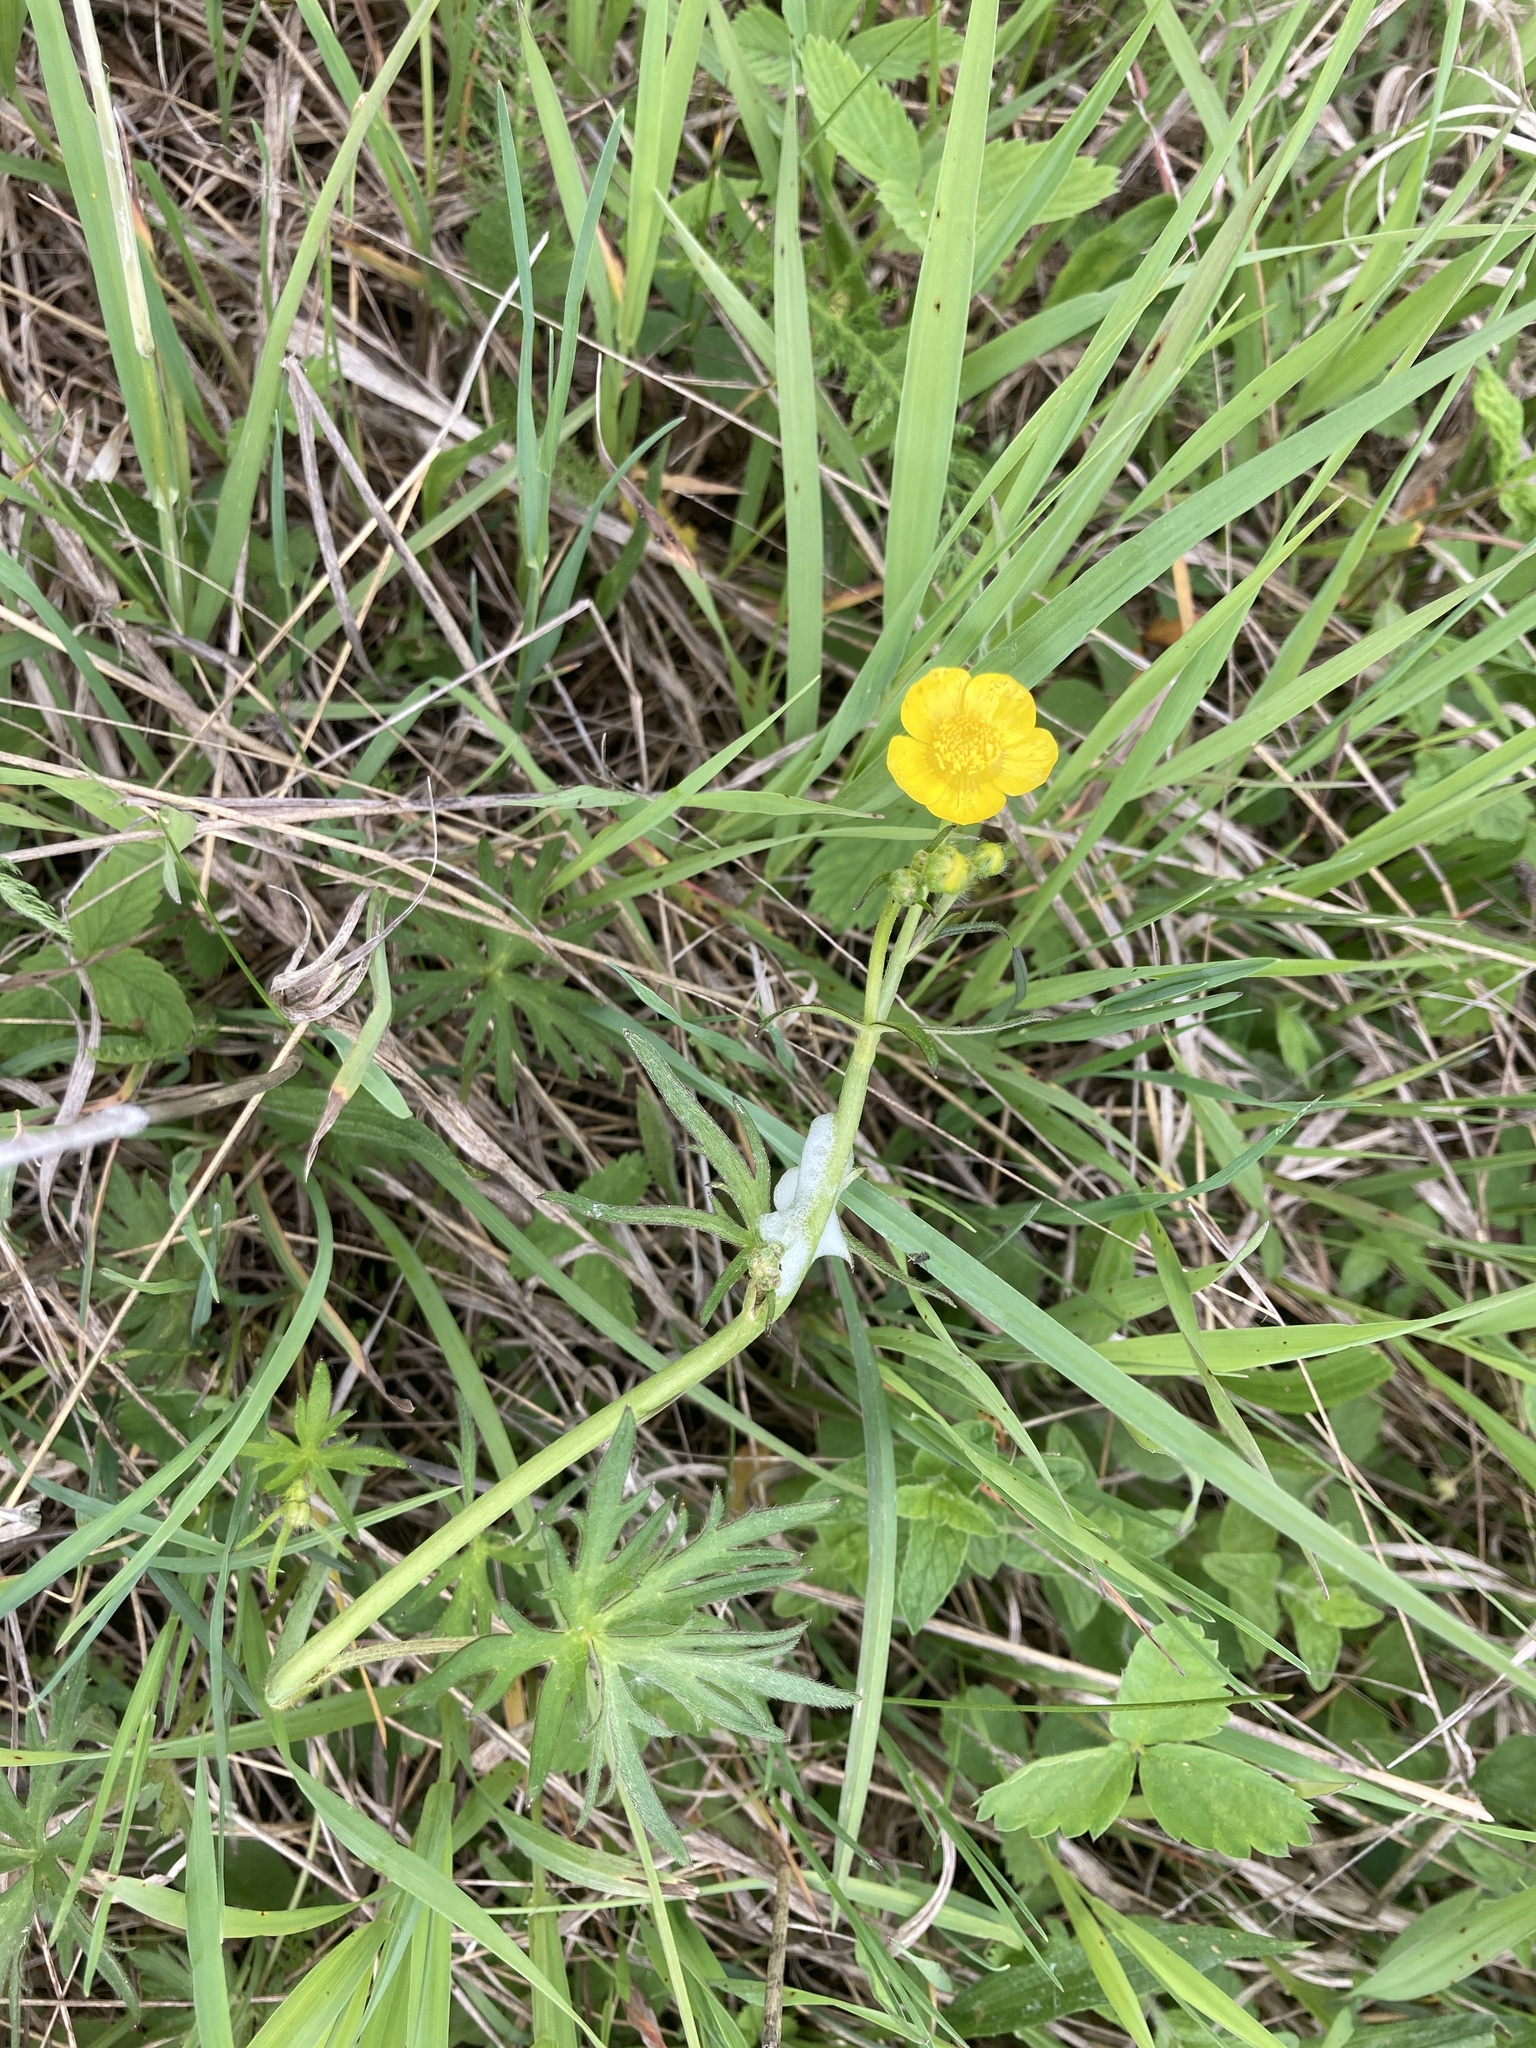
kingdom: Plantae
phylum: Tracheophyta
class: Magnoliopsida
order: Ranunculales
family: Ranunculaceae
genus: Ranunculus
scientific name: Ranunculus acris
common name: Meadow buttercup
